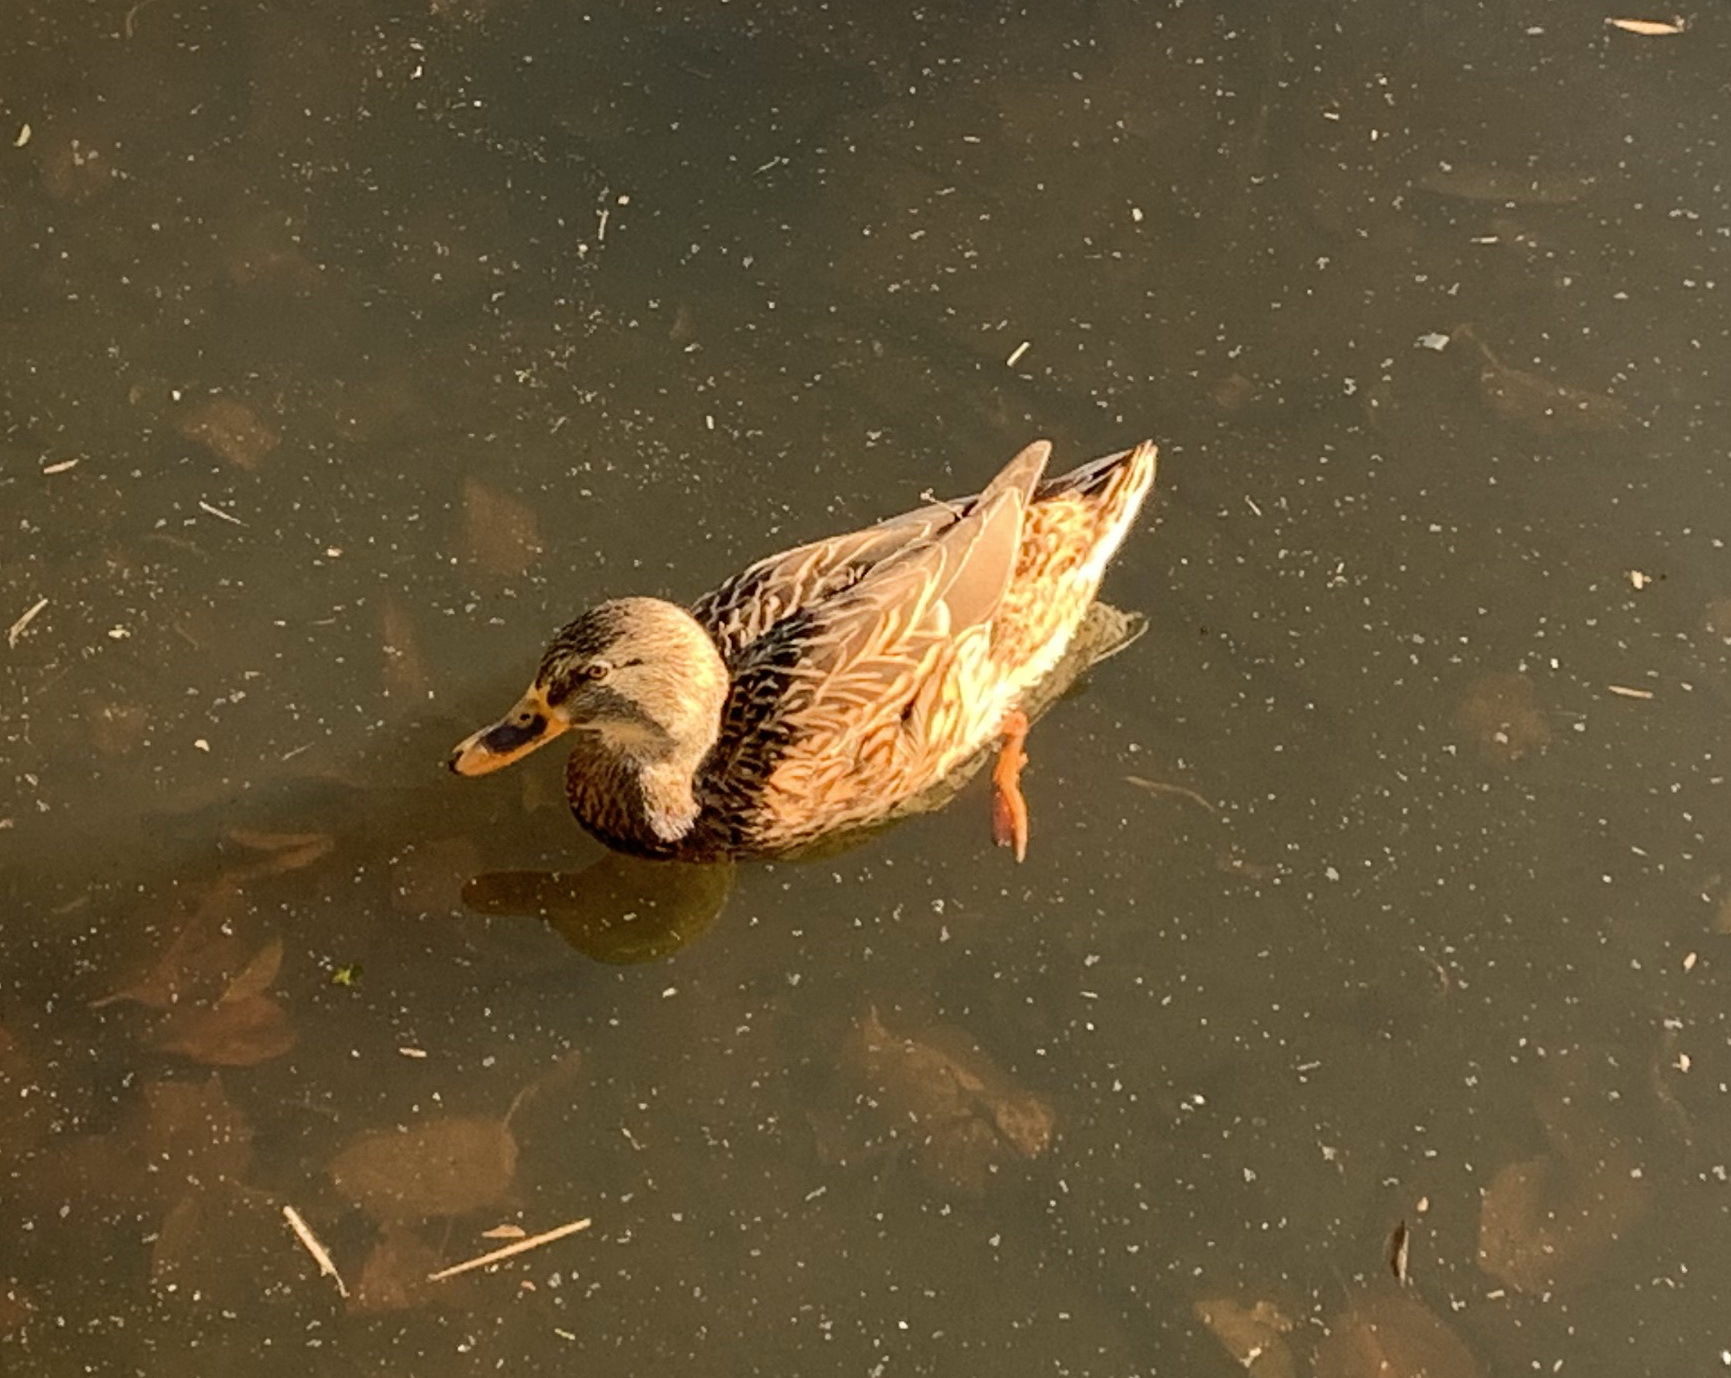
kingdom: Animalia
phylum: Chordata
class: Aves
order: Anseriformes
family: Anatidae
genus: Anas
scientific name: Anas platyrhynchos
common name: Mallard
